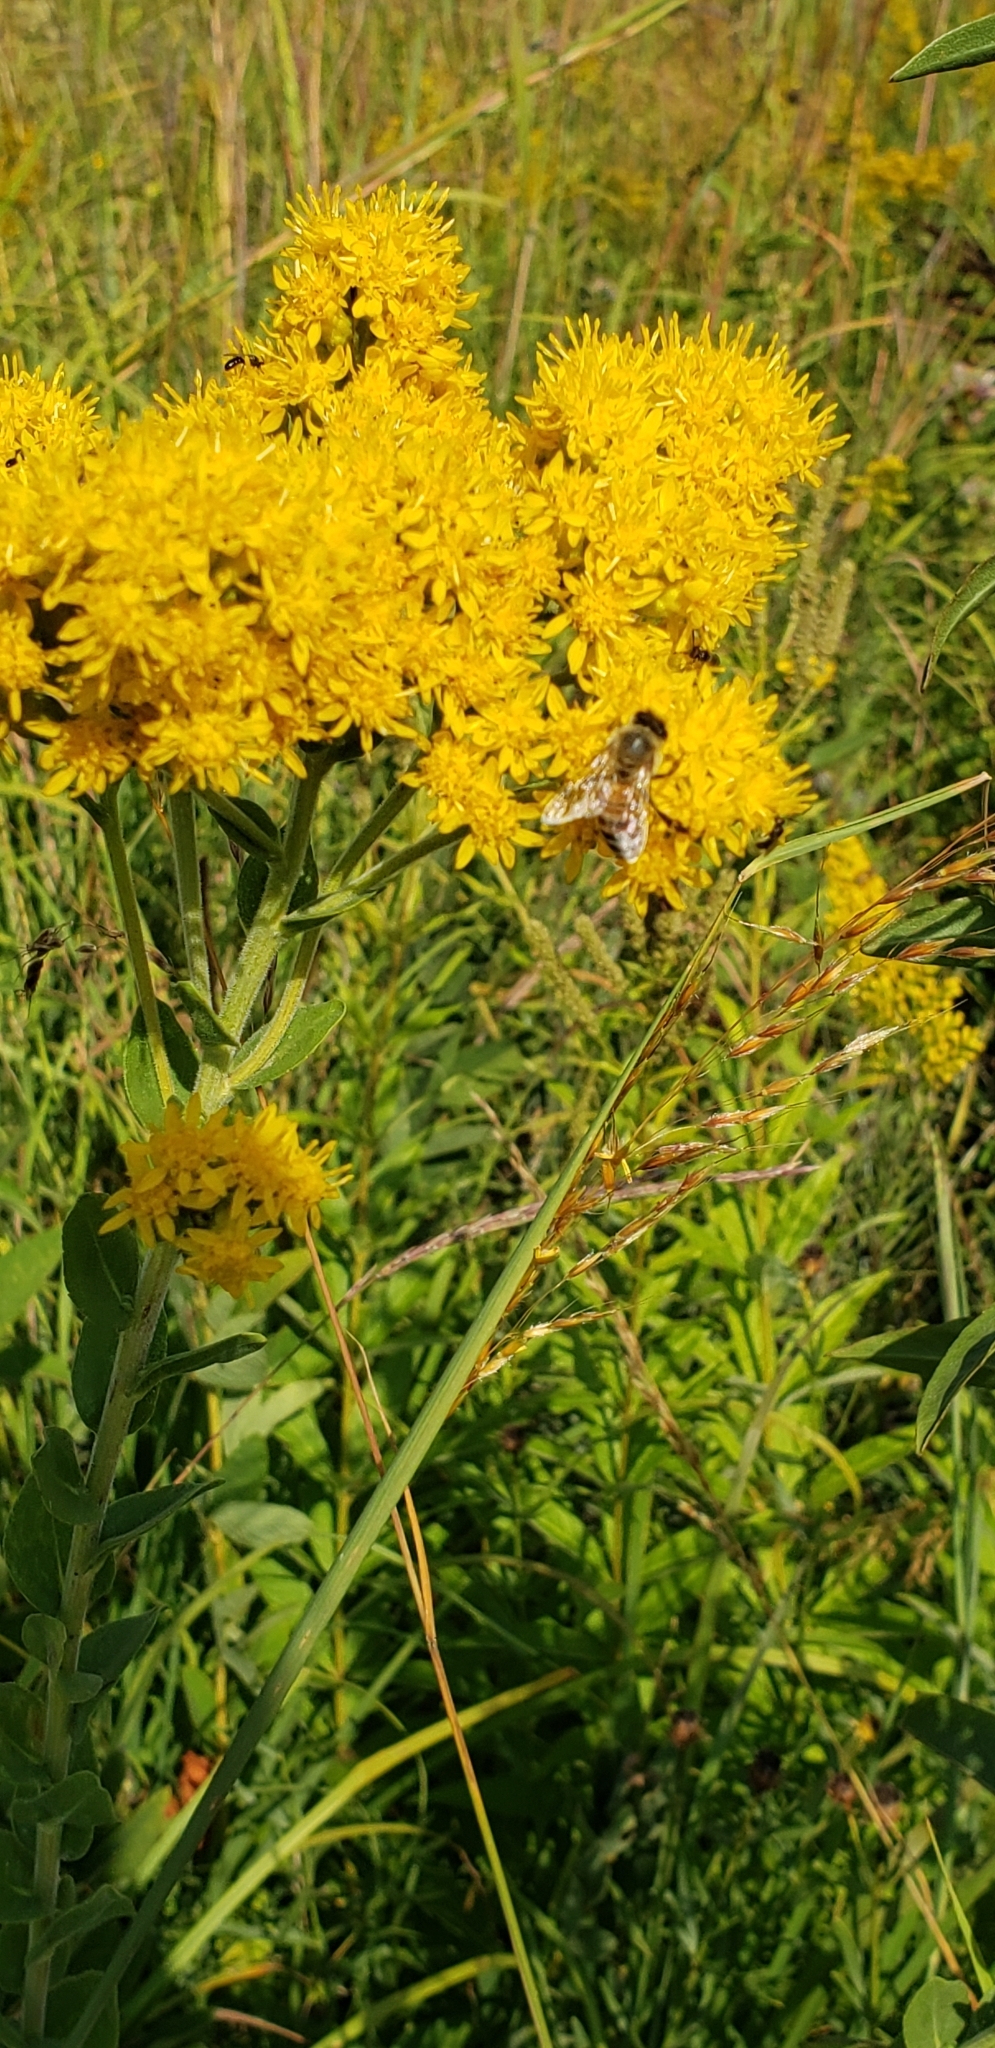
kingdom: Animalia
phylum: Arthropoda
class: Insecta
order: Hymenoptera
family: Apidae
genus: Apis
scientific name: Apis mellifera
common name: Honey bee
